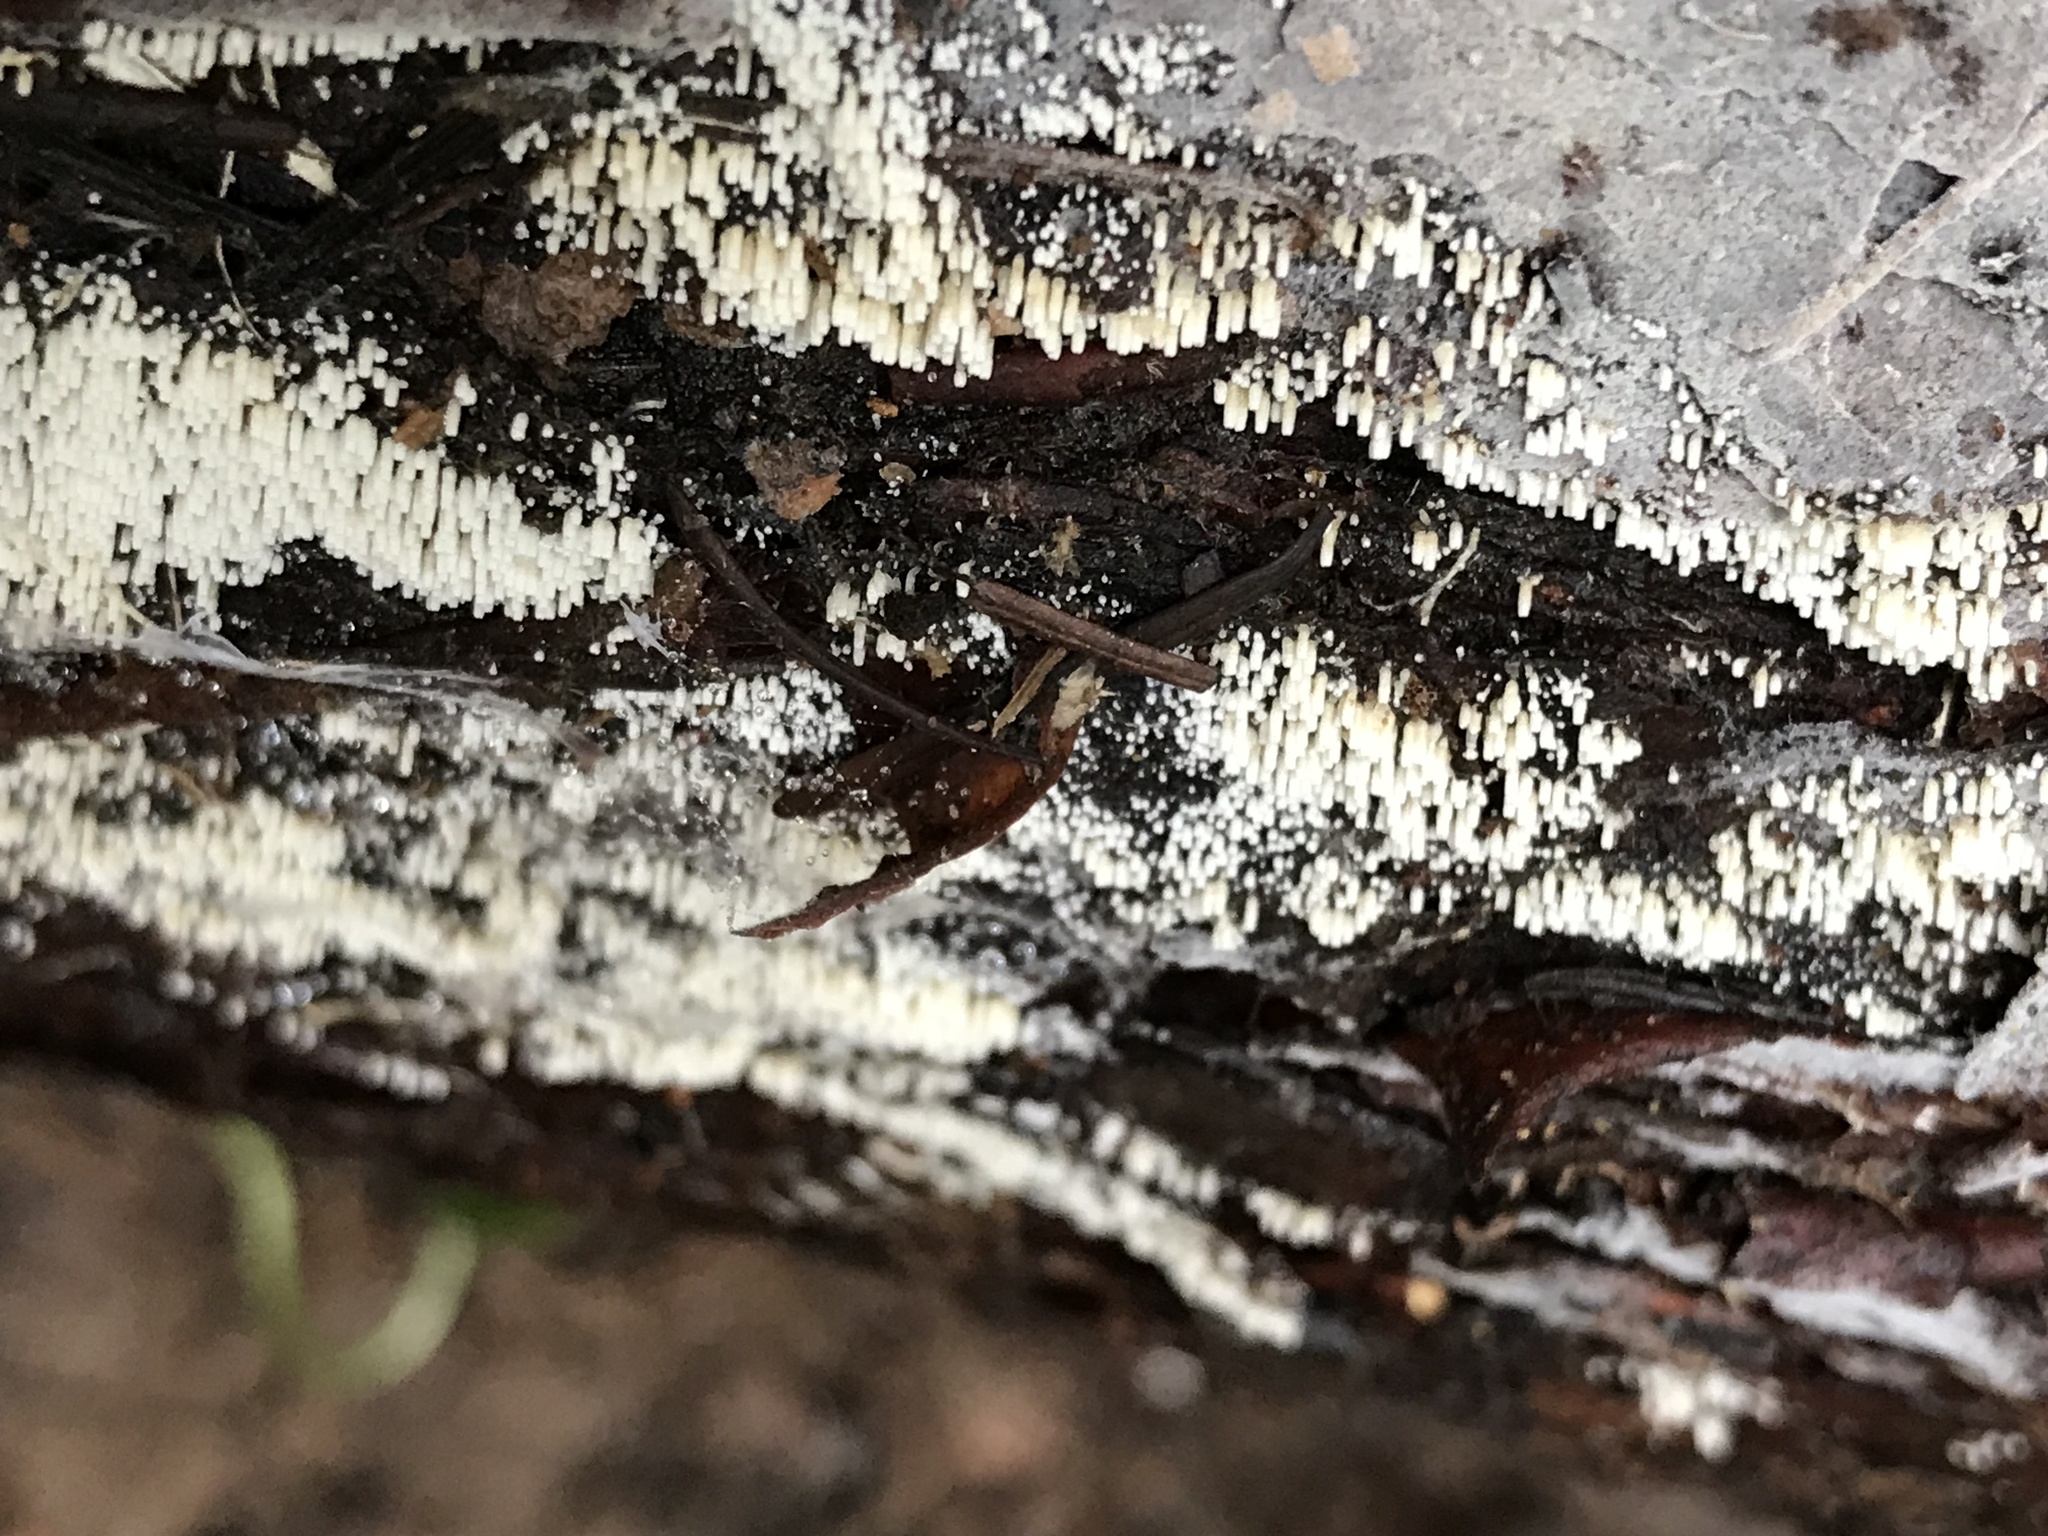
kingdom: Fungi
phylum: Basidiomycota
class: Agaricomycetes
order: Agaricales
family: Marasmiaceae
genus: Henningsomyces
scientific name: Henningsomyces candidus
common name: White tubelet
